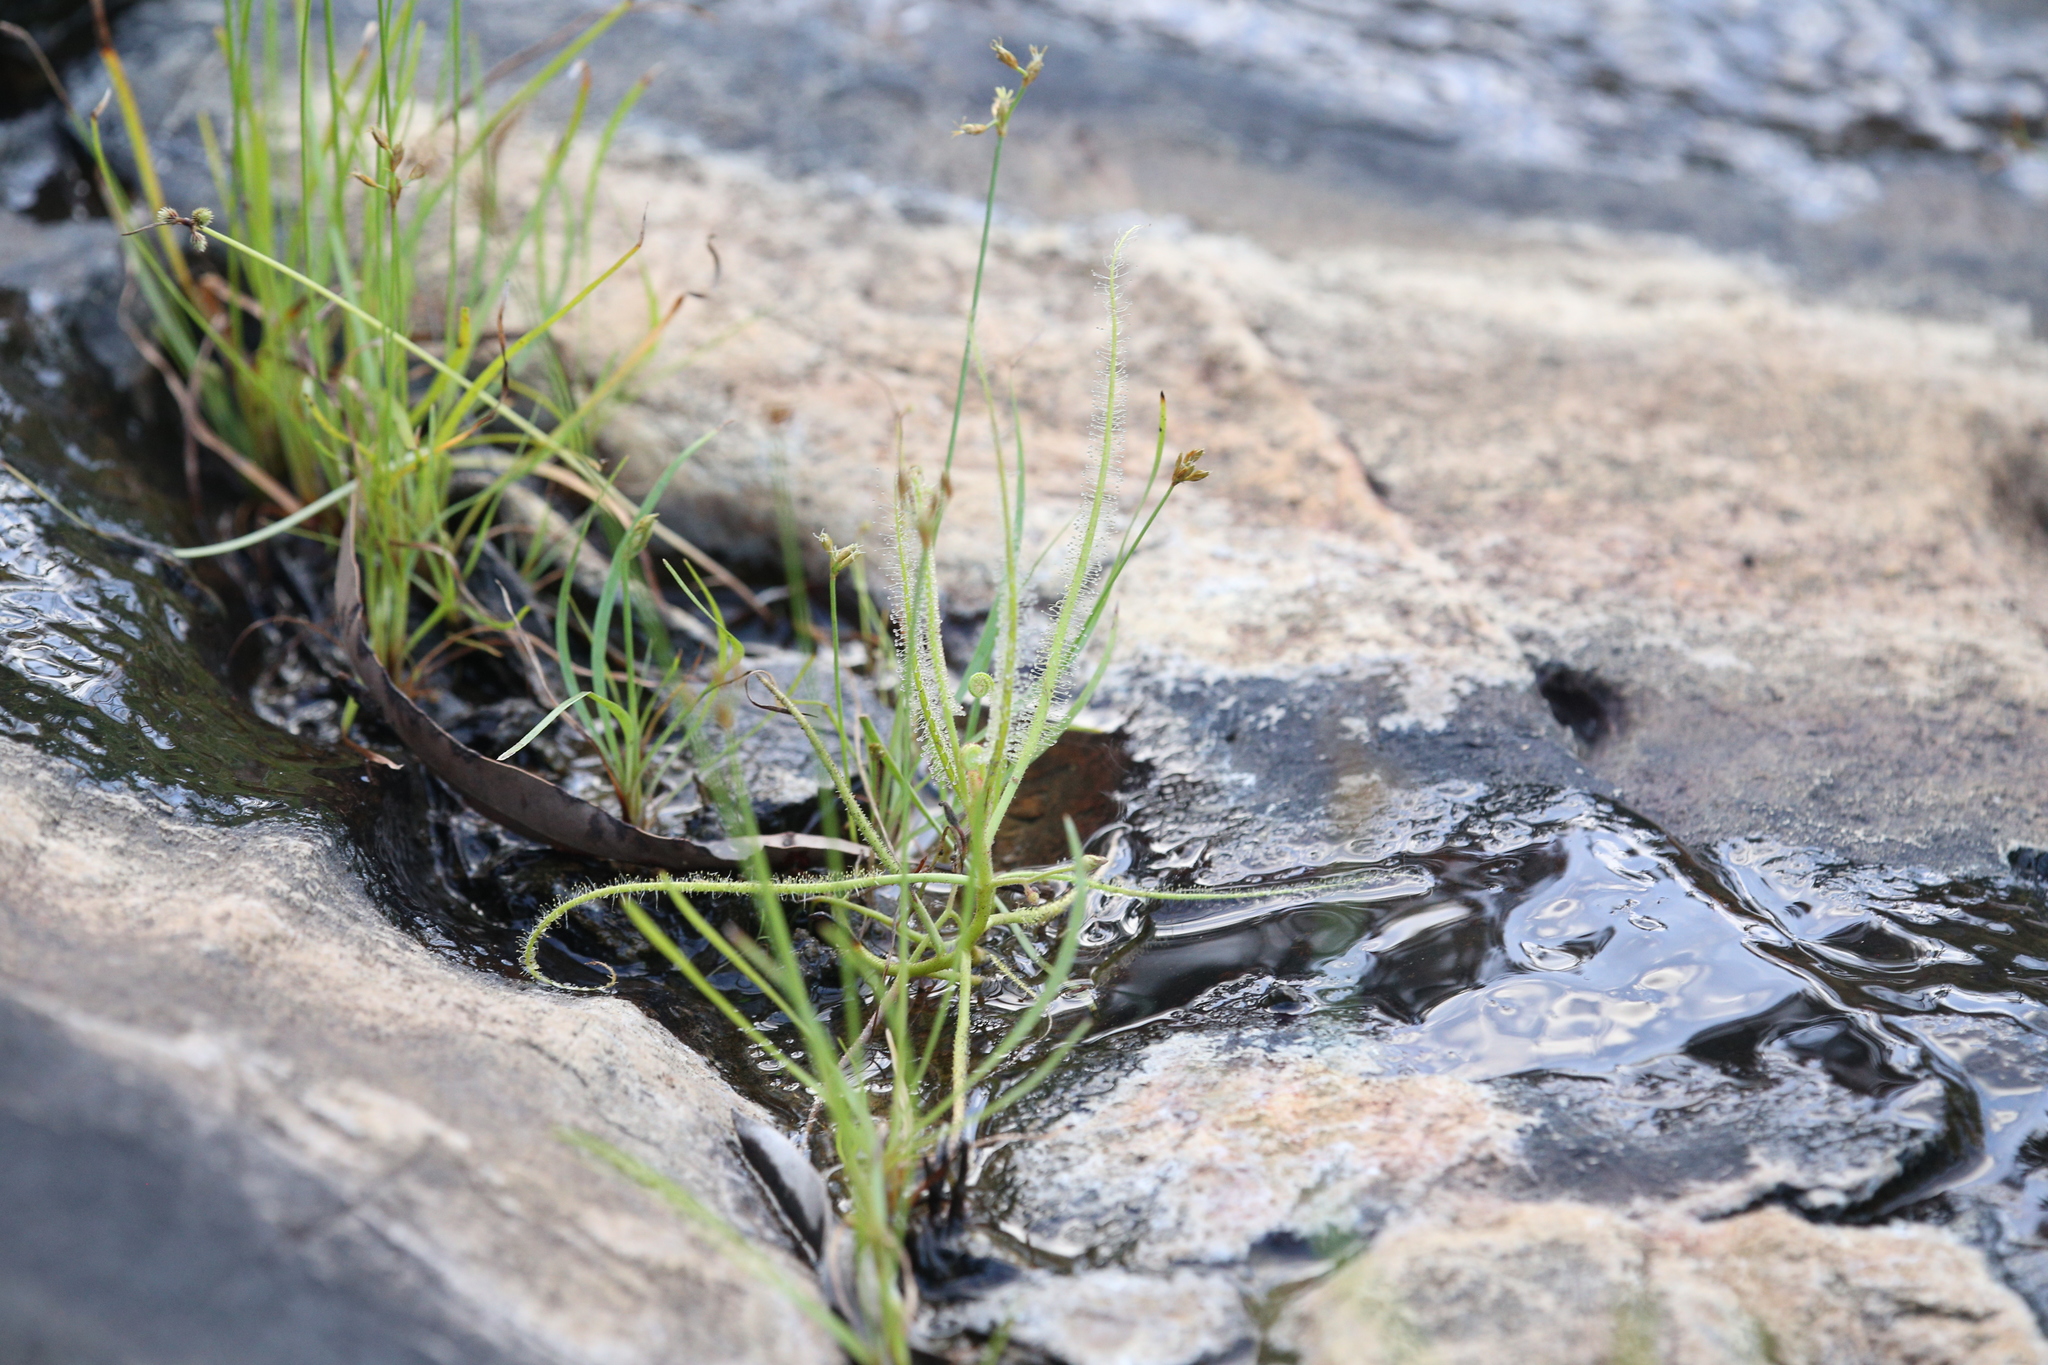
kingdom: Plantae
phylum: Tracheophyta
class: Magnoliopsida
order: Caryophyllales
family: Droseraceae
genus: Drosera
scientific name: Drosera indica
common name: Indian sundew
